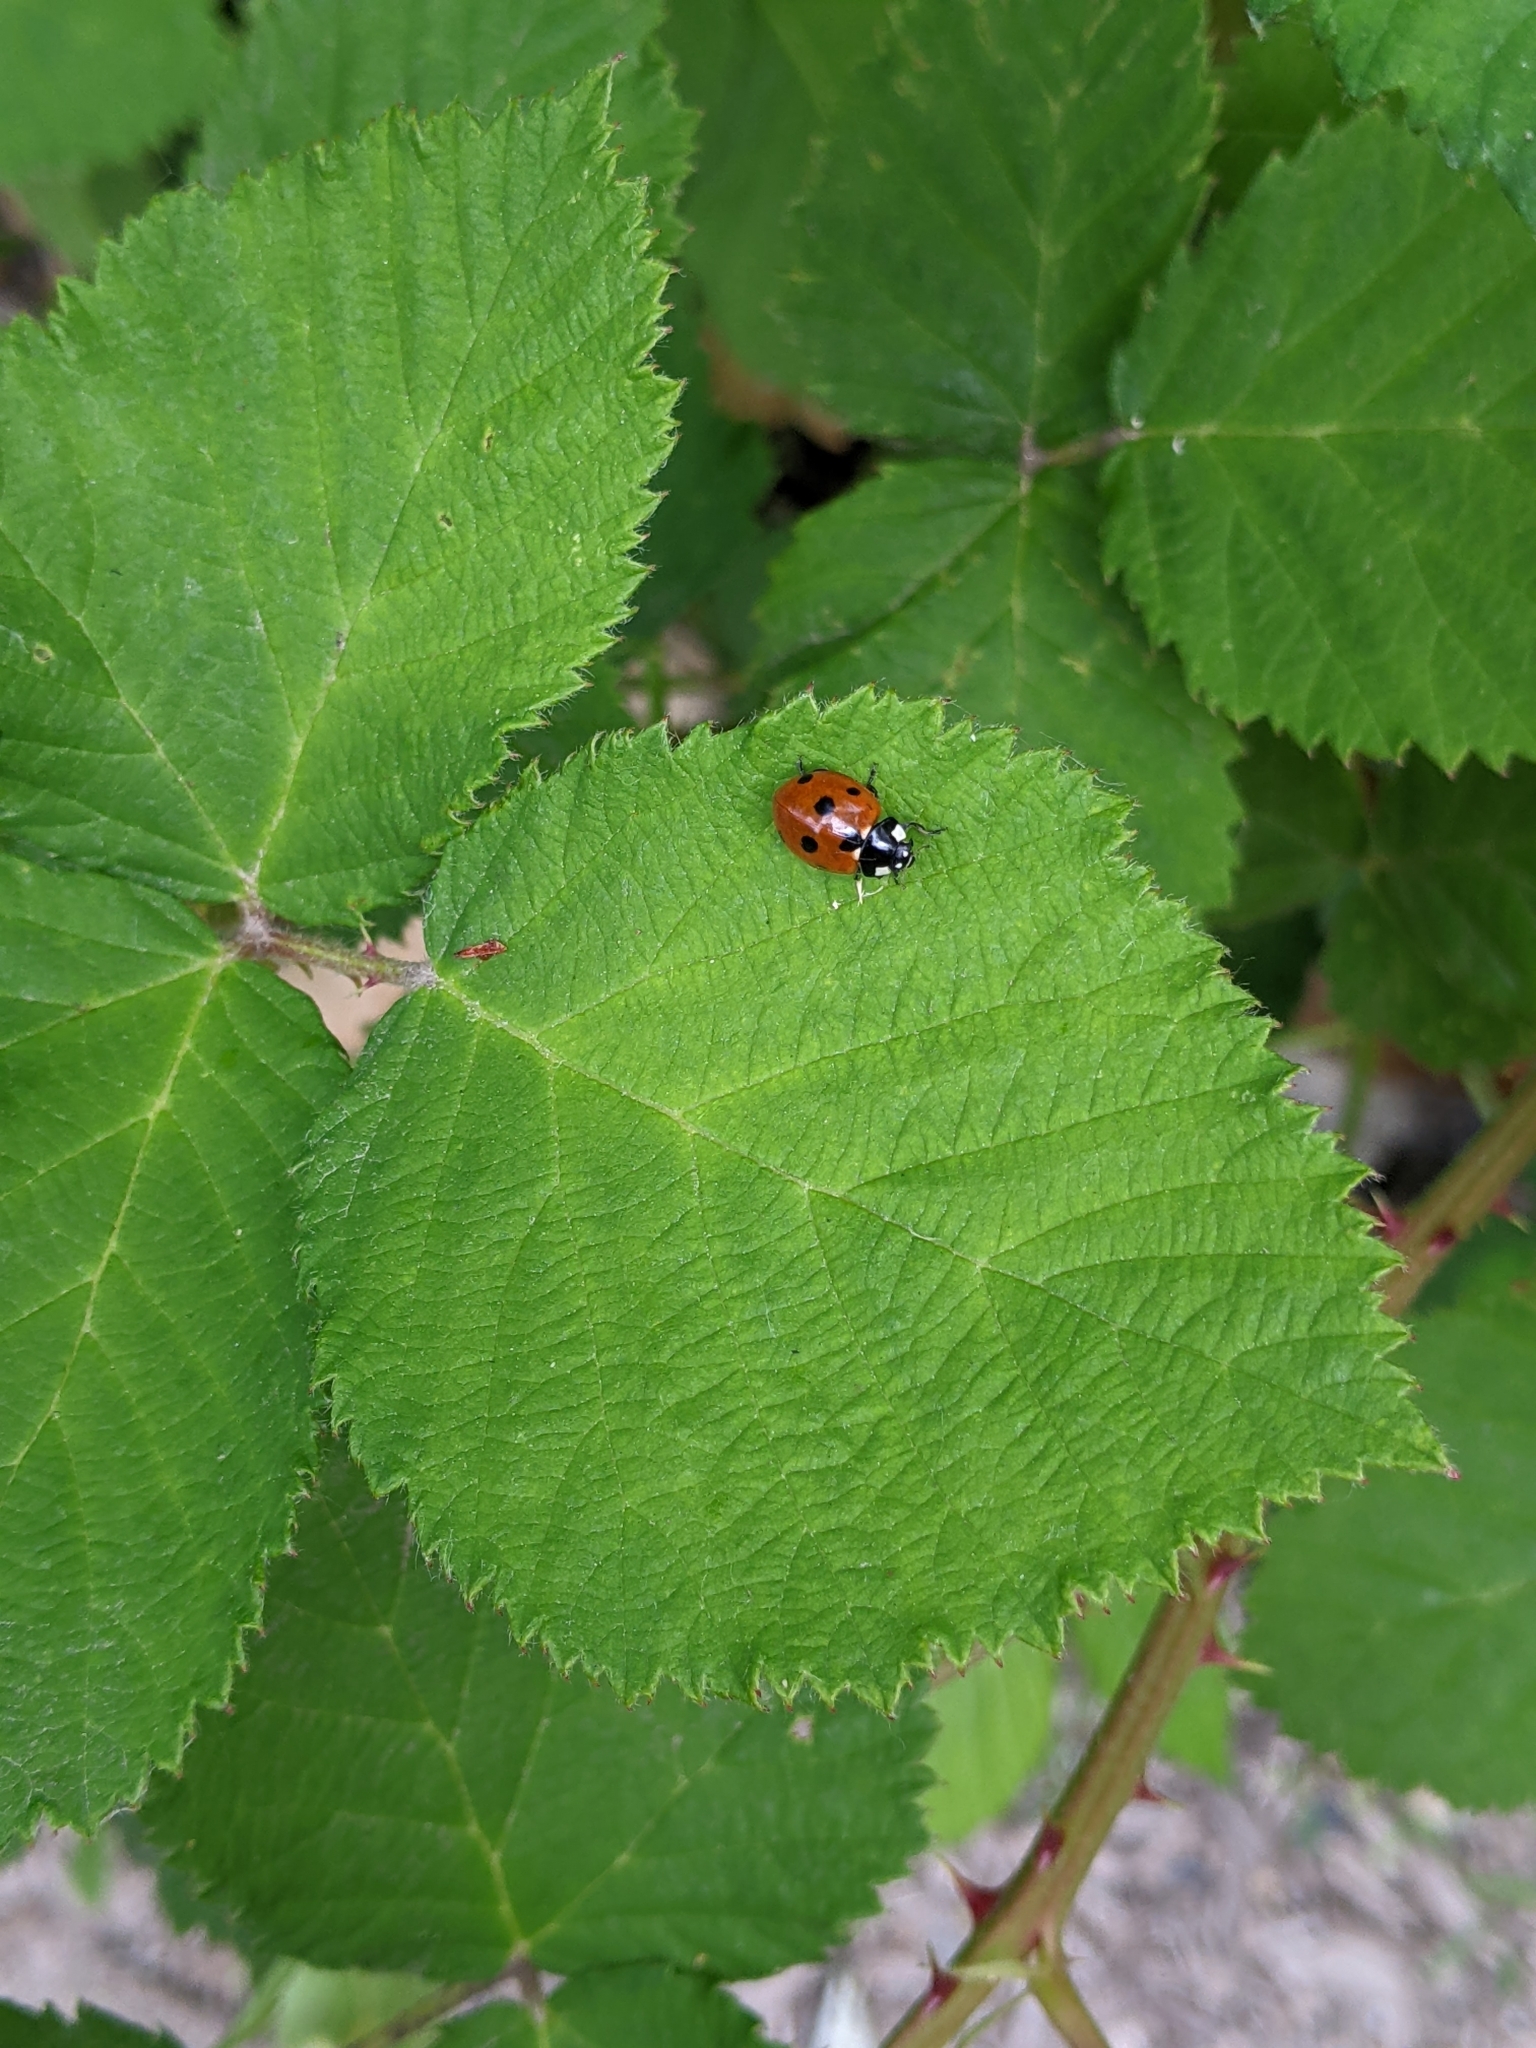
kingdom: Animalia
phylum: Arthropoda
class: Insecta
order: Coleoptera
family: Coccinellidae
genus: Coccinella
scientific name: Coccinella septempunctata
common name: Sevenspotted lady beetle
